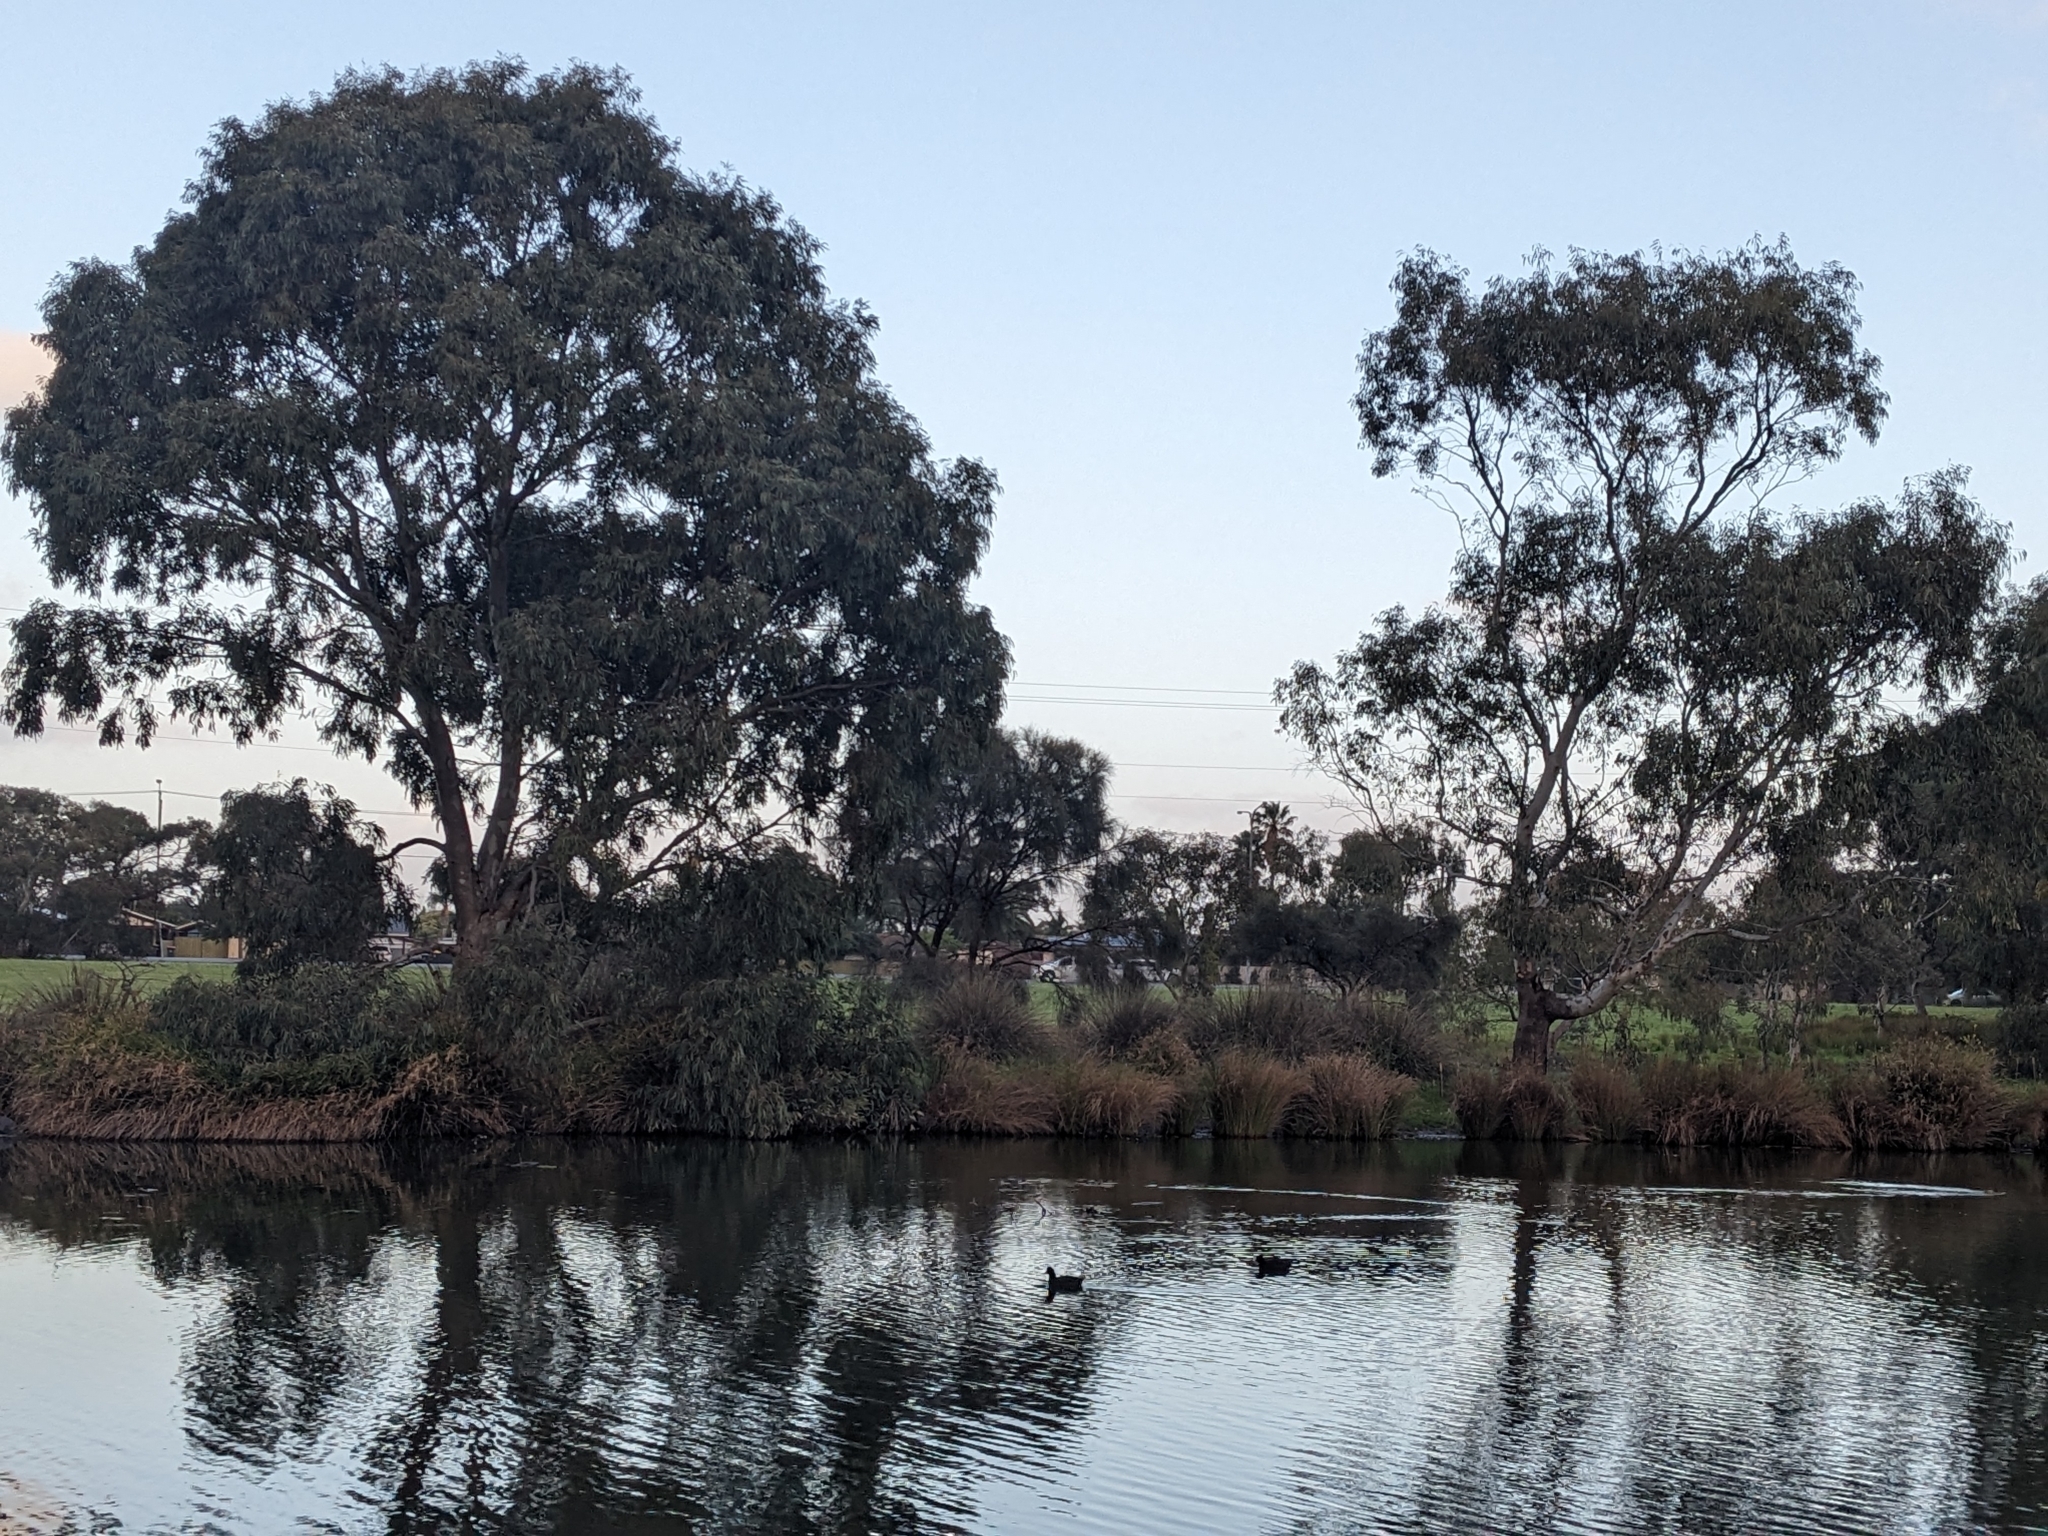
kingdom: Animalia
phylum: Chordata
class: Aves
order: Gruiformes
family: Rallidae
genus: Fulica
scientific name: Fulica atra
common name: Eurasian coot
